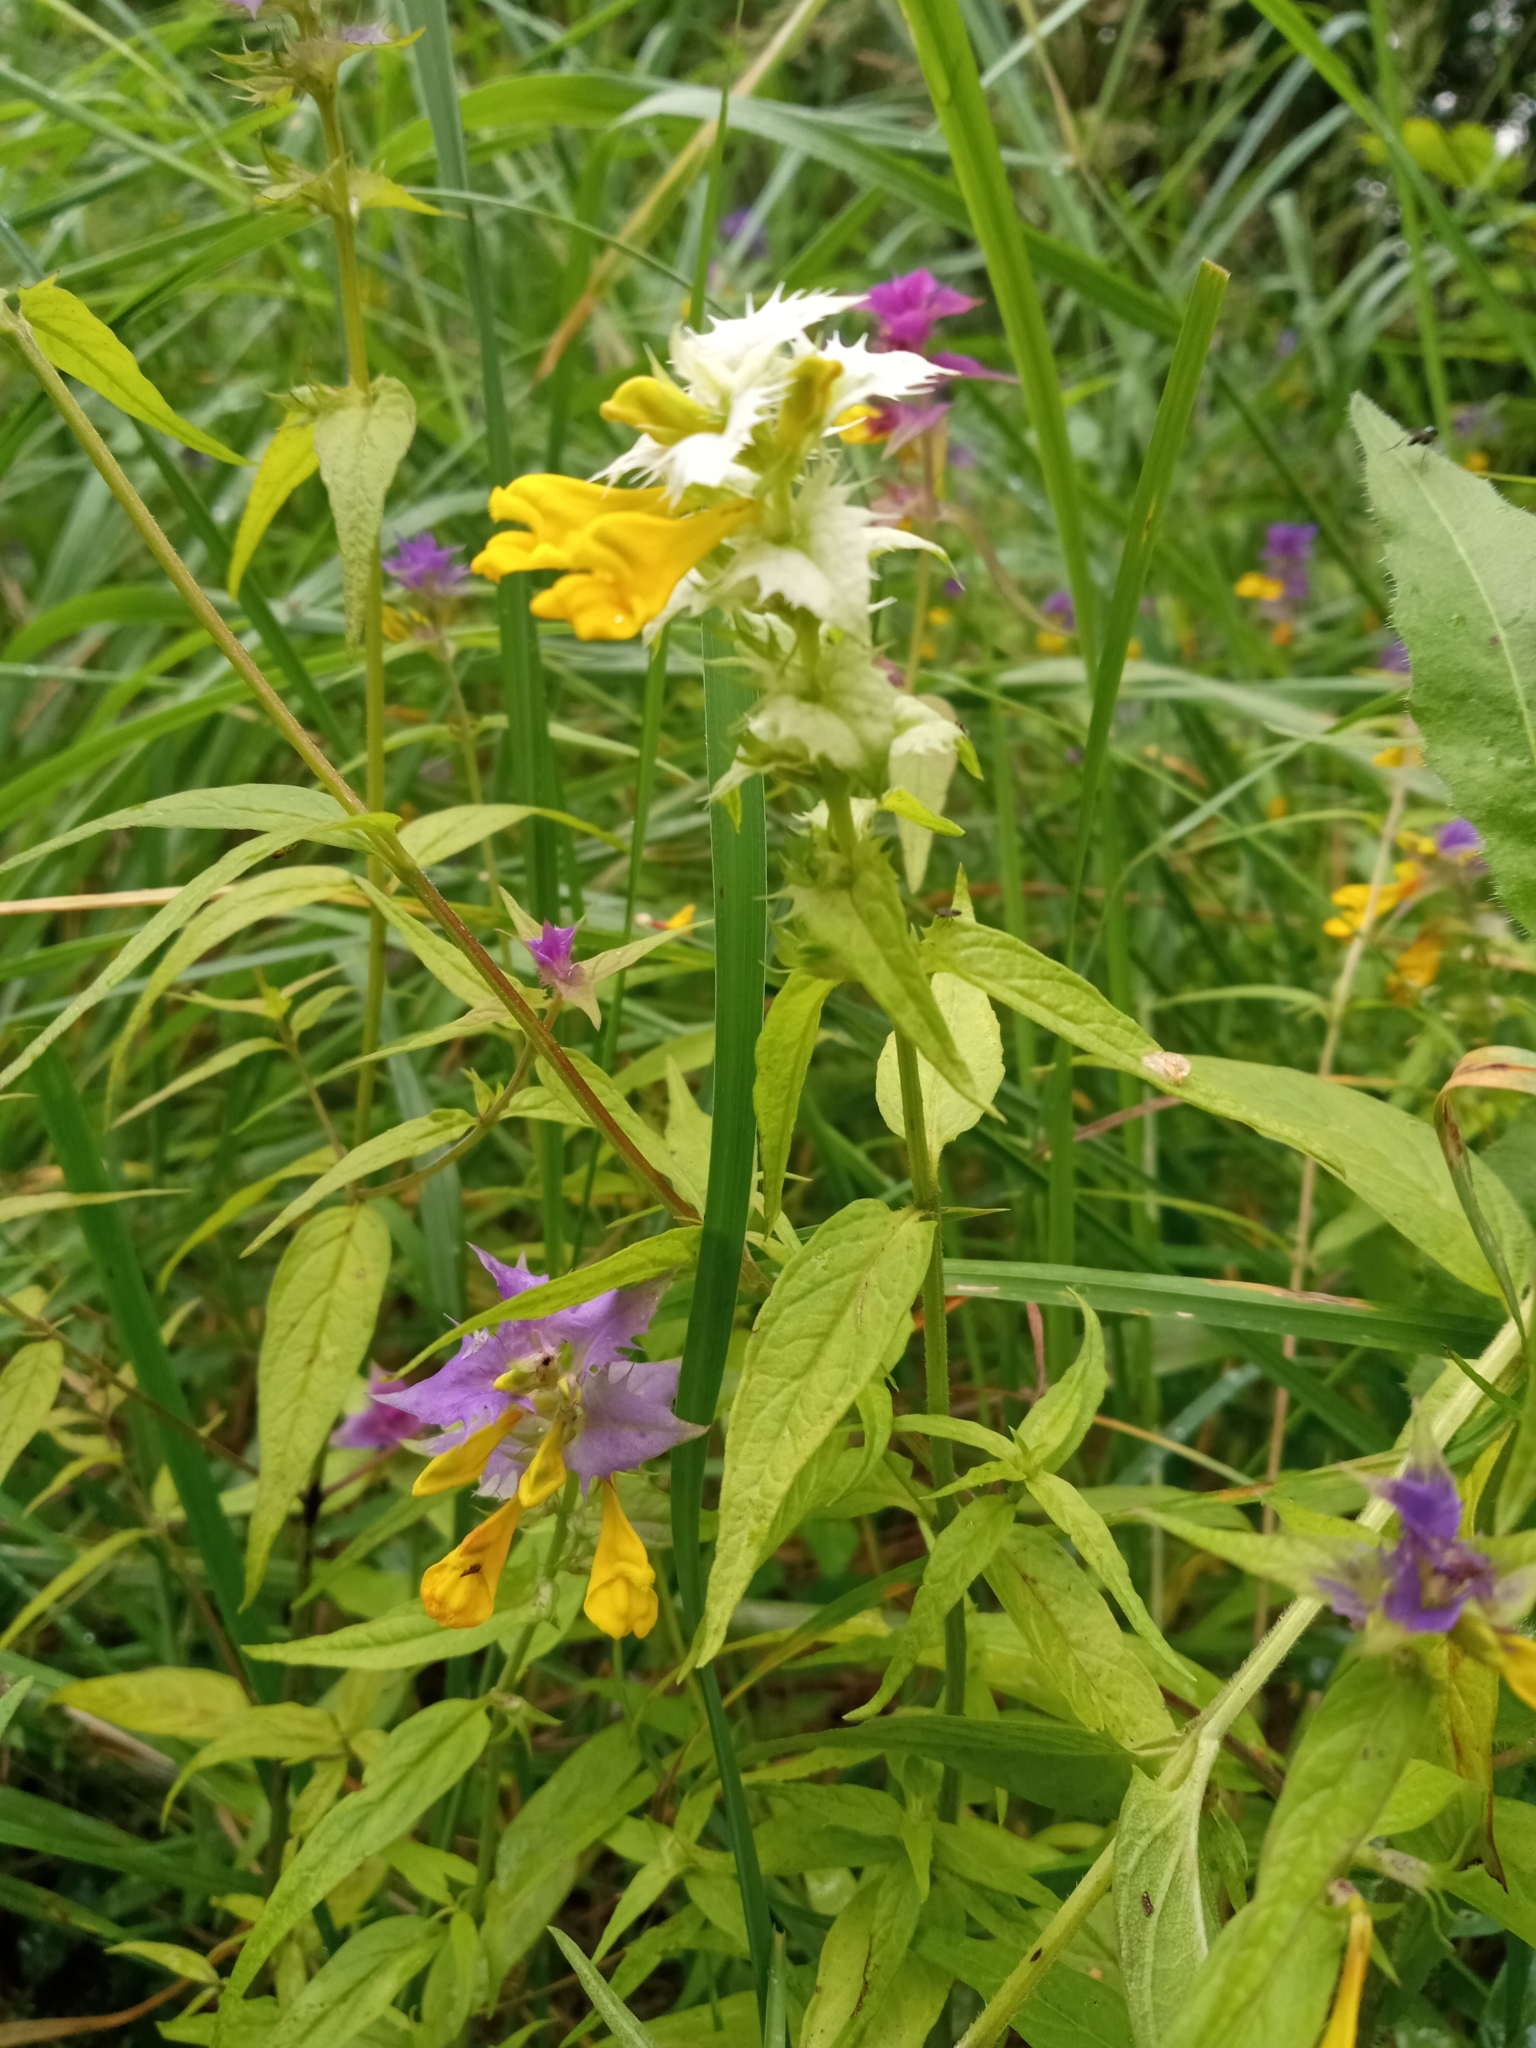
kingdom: Plantae
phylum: Tracheophyta
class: Magnoliopsida
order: Lamiales
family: Orobanchaceae
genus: Melampyrum
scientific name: Melampyrum nemorosum
